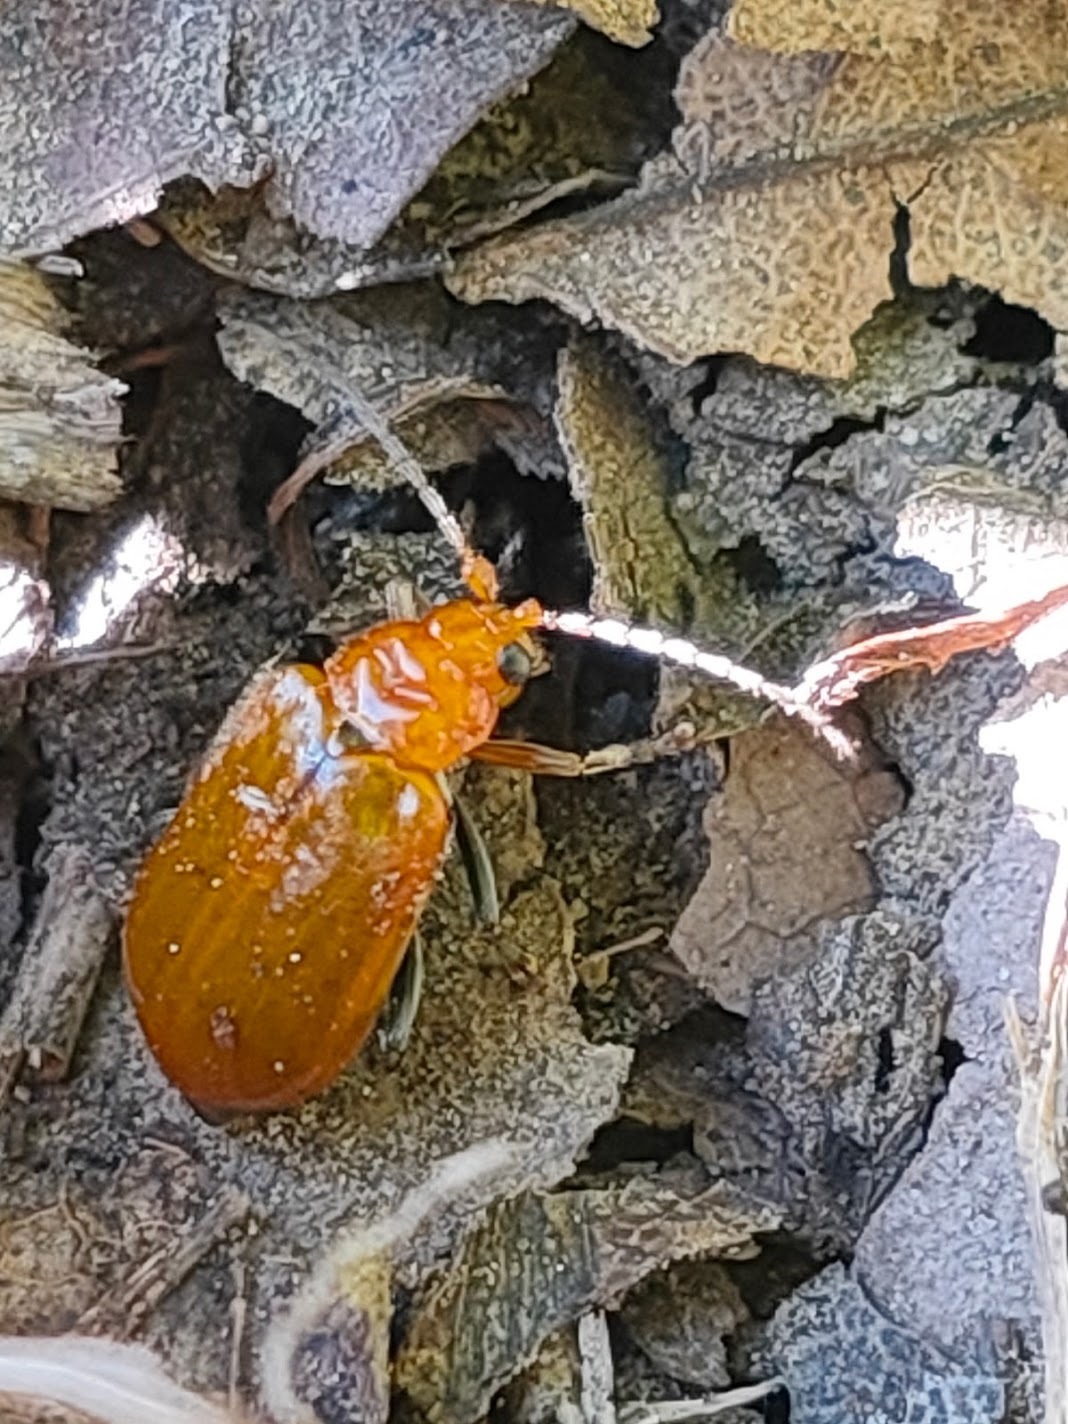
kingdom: Animalia
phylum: Arthropoda
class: Insecta
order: Coleoptera
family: Chrysomelidae
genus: Aulacophora
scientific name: Aulacophora indica
